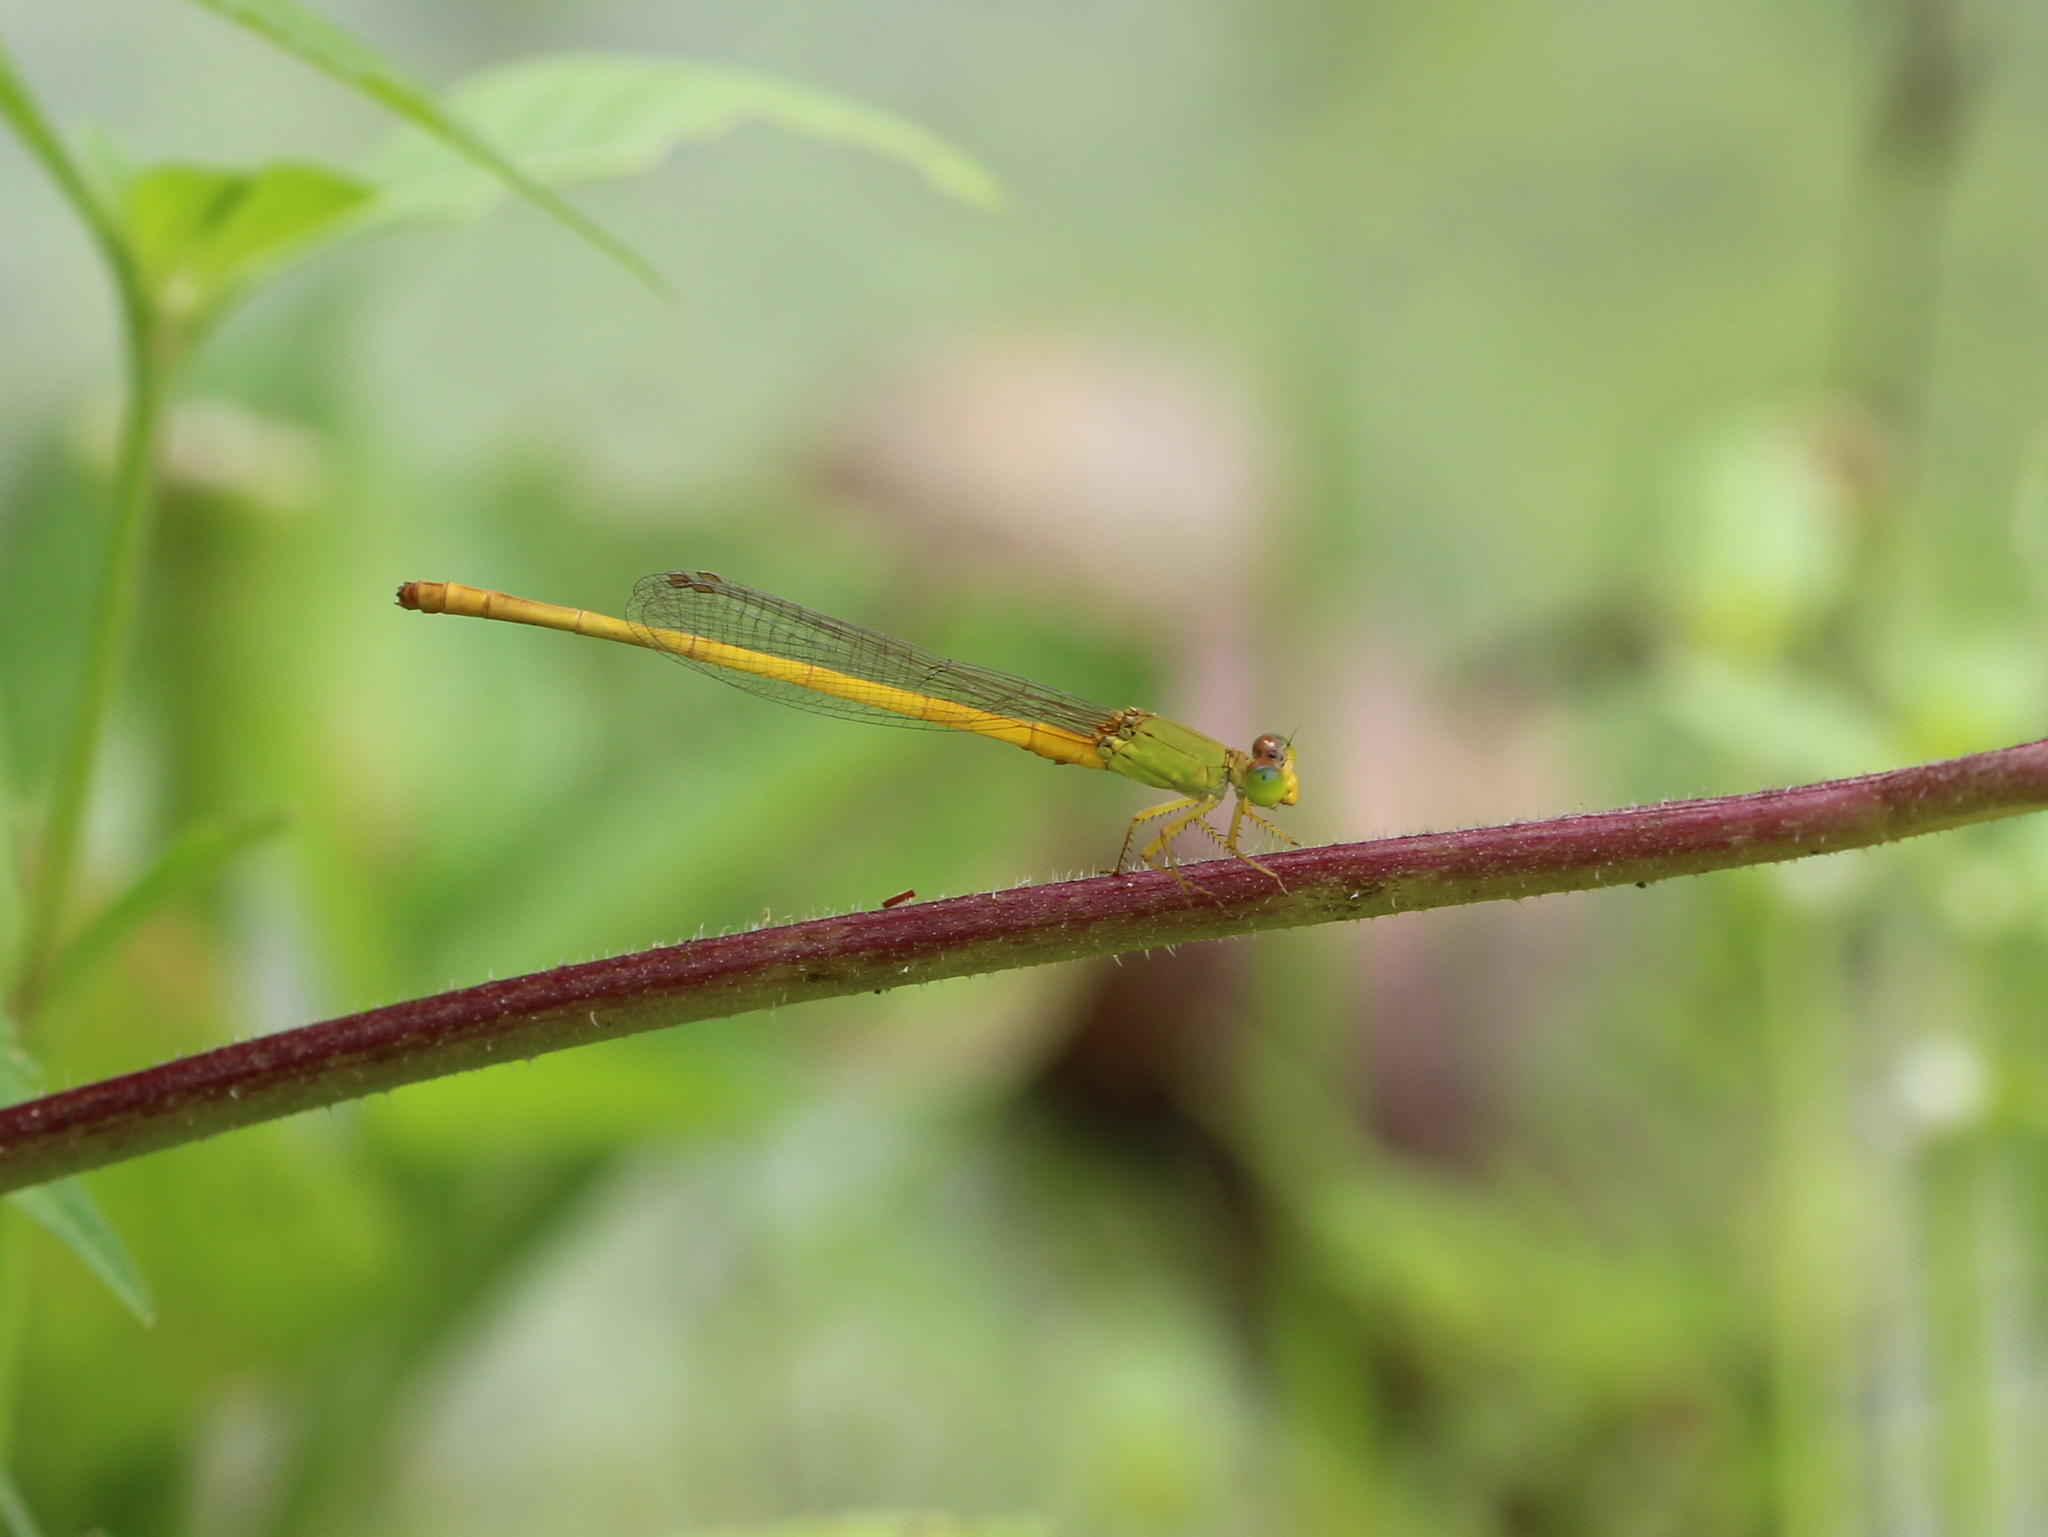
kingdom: Animalia
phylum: Arthropoda
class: Insecta
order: Odonata
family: Coenagrionidae
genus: Ceriagrion
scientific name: Ceriagrion coromandelianum
